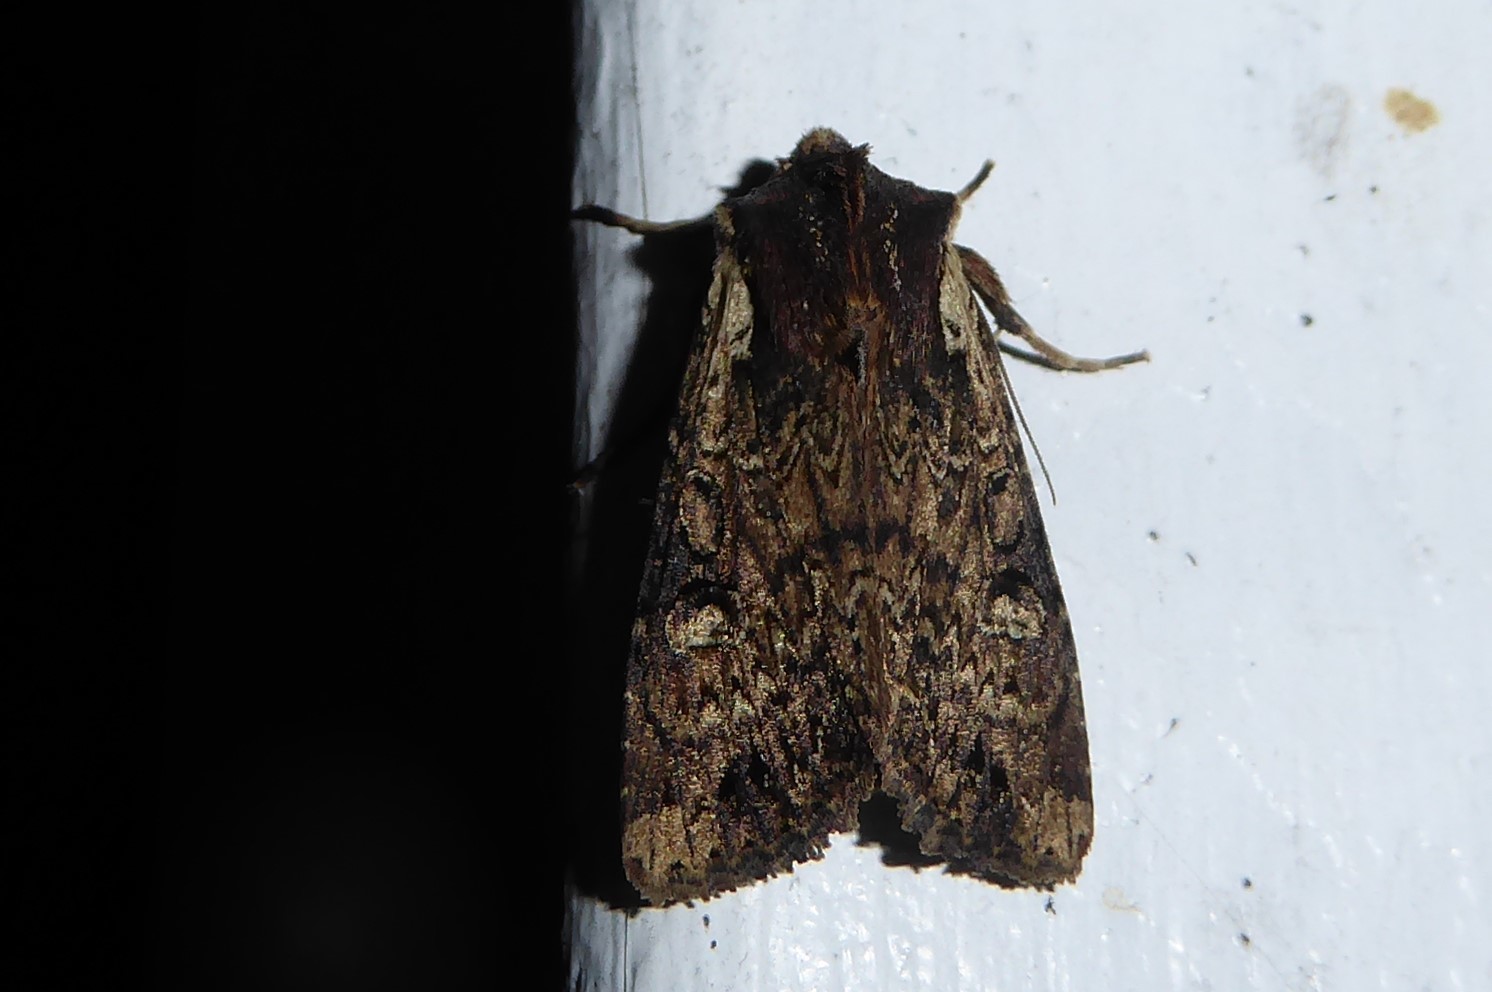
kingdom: Animalia
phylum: Arthropoda
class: Insecta
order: Lepidoptera
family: Noctuidae
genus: Ichneutica
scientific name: Ichneutica omoplaca
